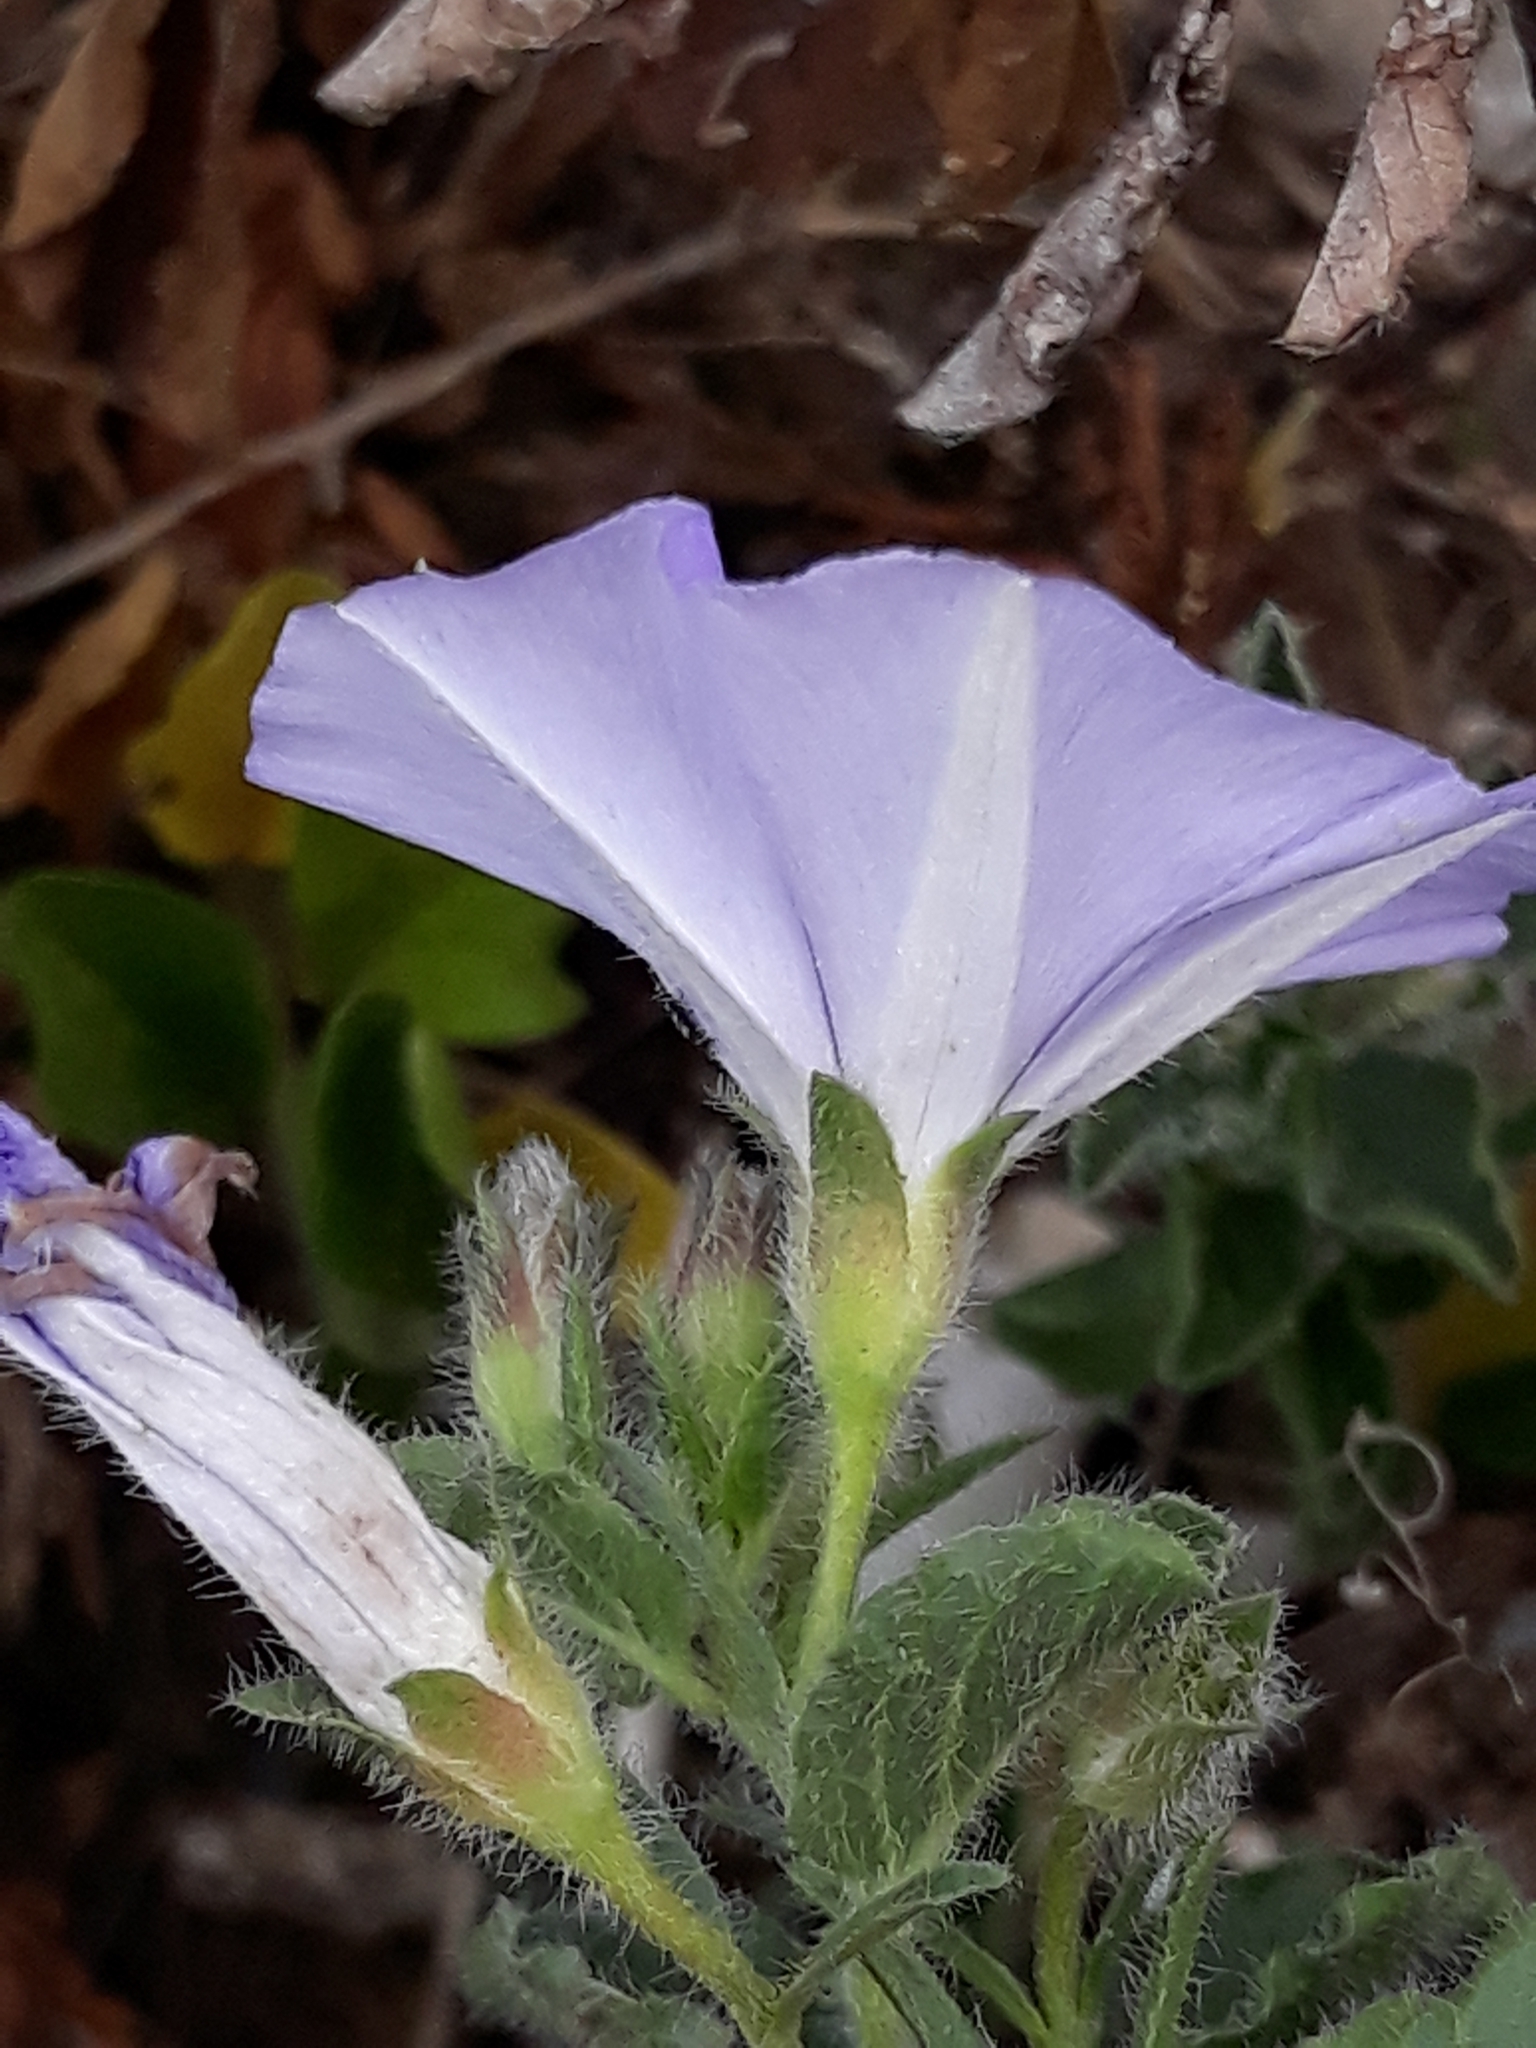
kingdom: Plantae
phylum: Tracheophyta
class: Magnoliopsida
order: Solanales
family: Convolvulaceae
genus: Convolvulus
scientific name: Convolvulus sabatius
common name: Ground blue-convolvulus
